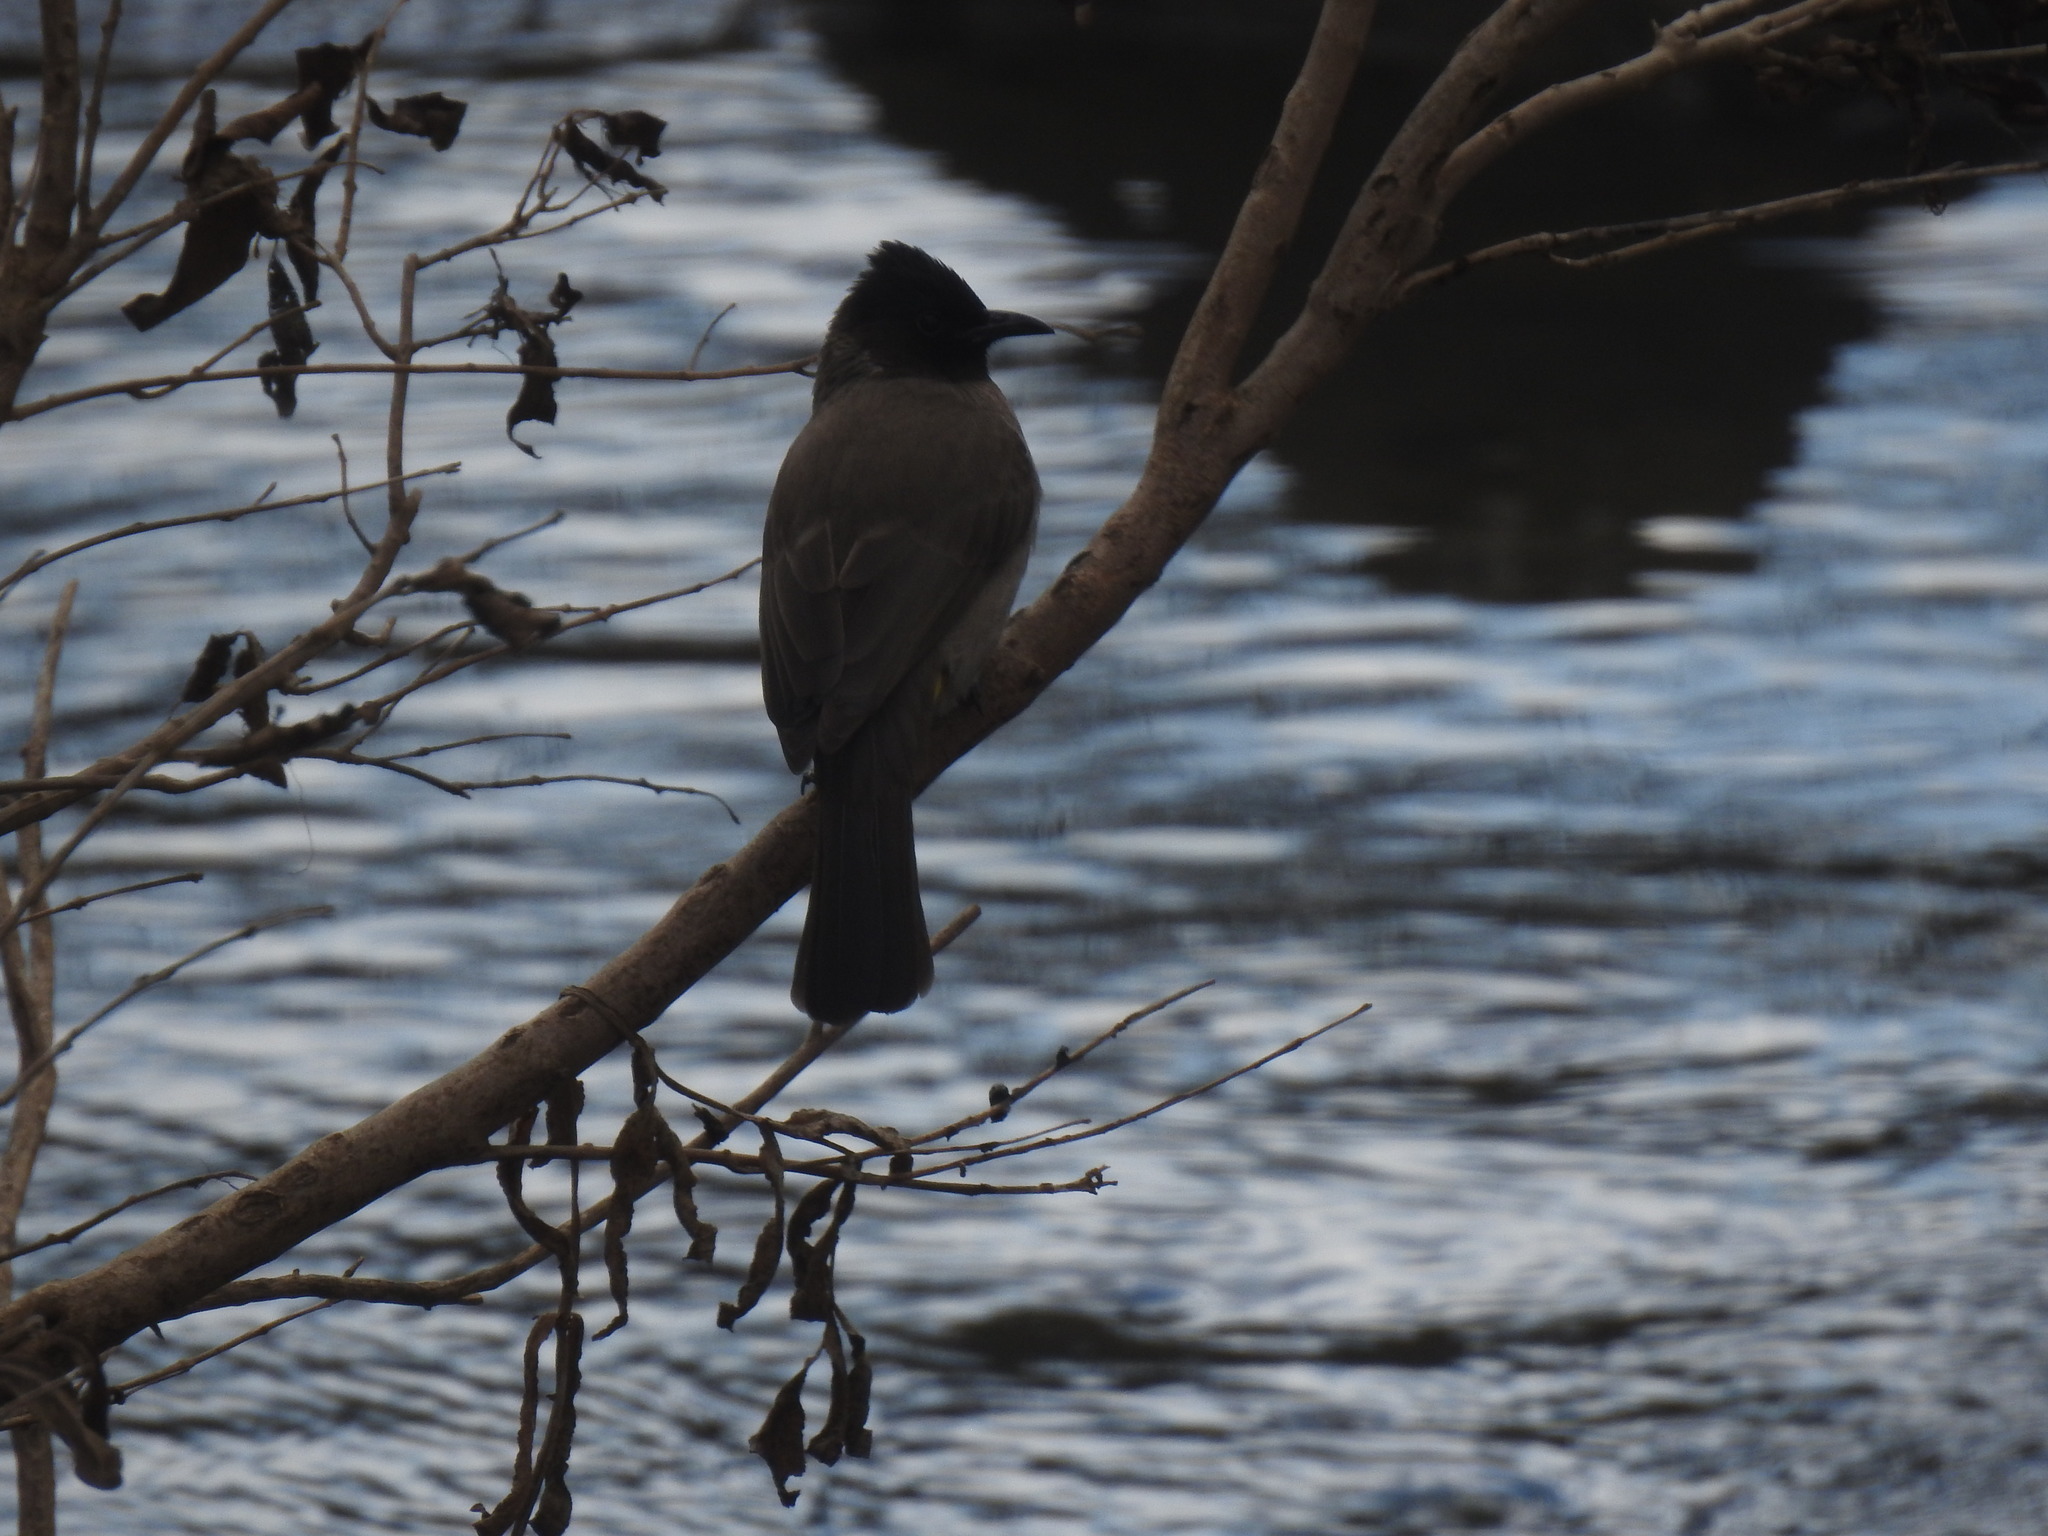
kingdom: Animalia
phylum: Chordata
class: Aves
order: Passeriformes
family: Pycnonotidae
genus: Pycnonotus
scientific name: Pycnonotus barbatus
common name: Common bulbul
